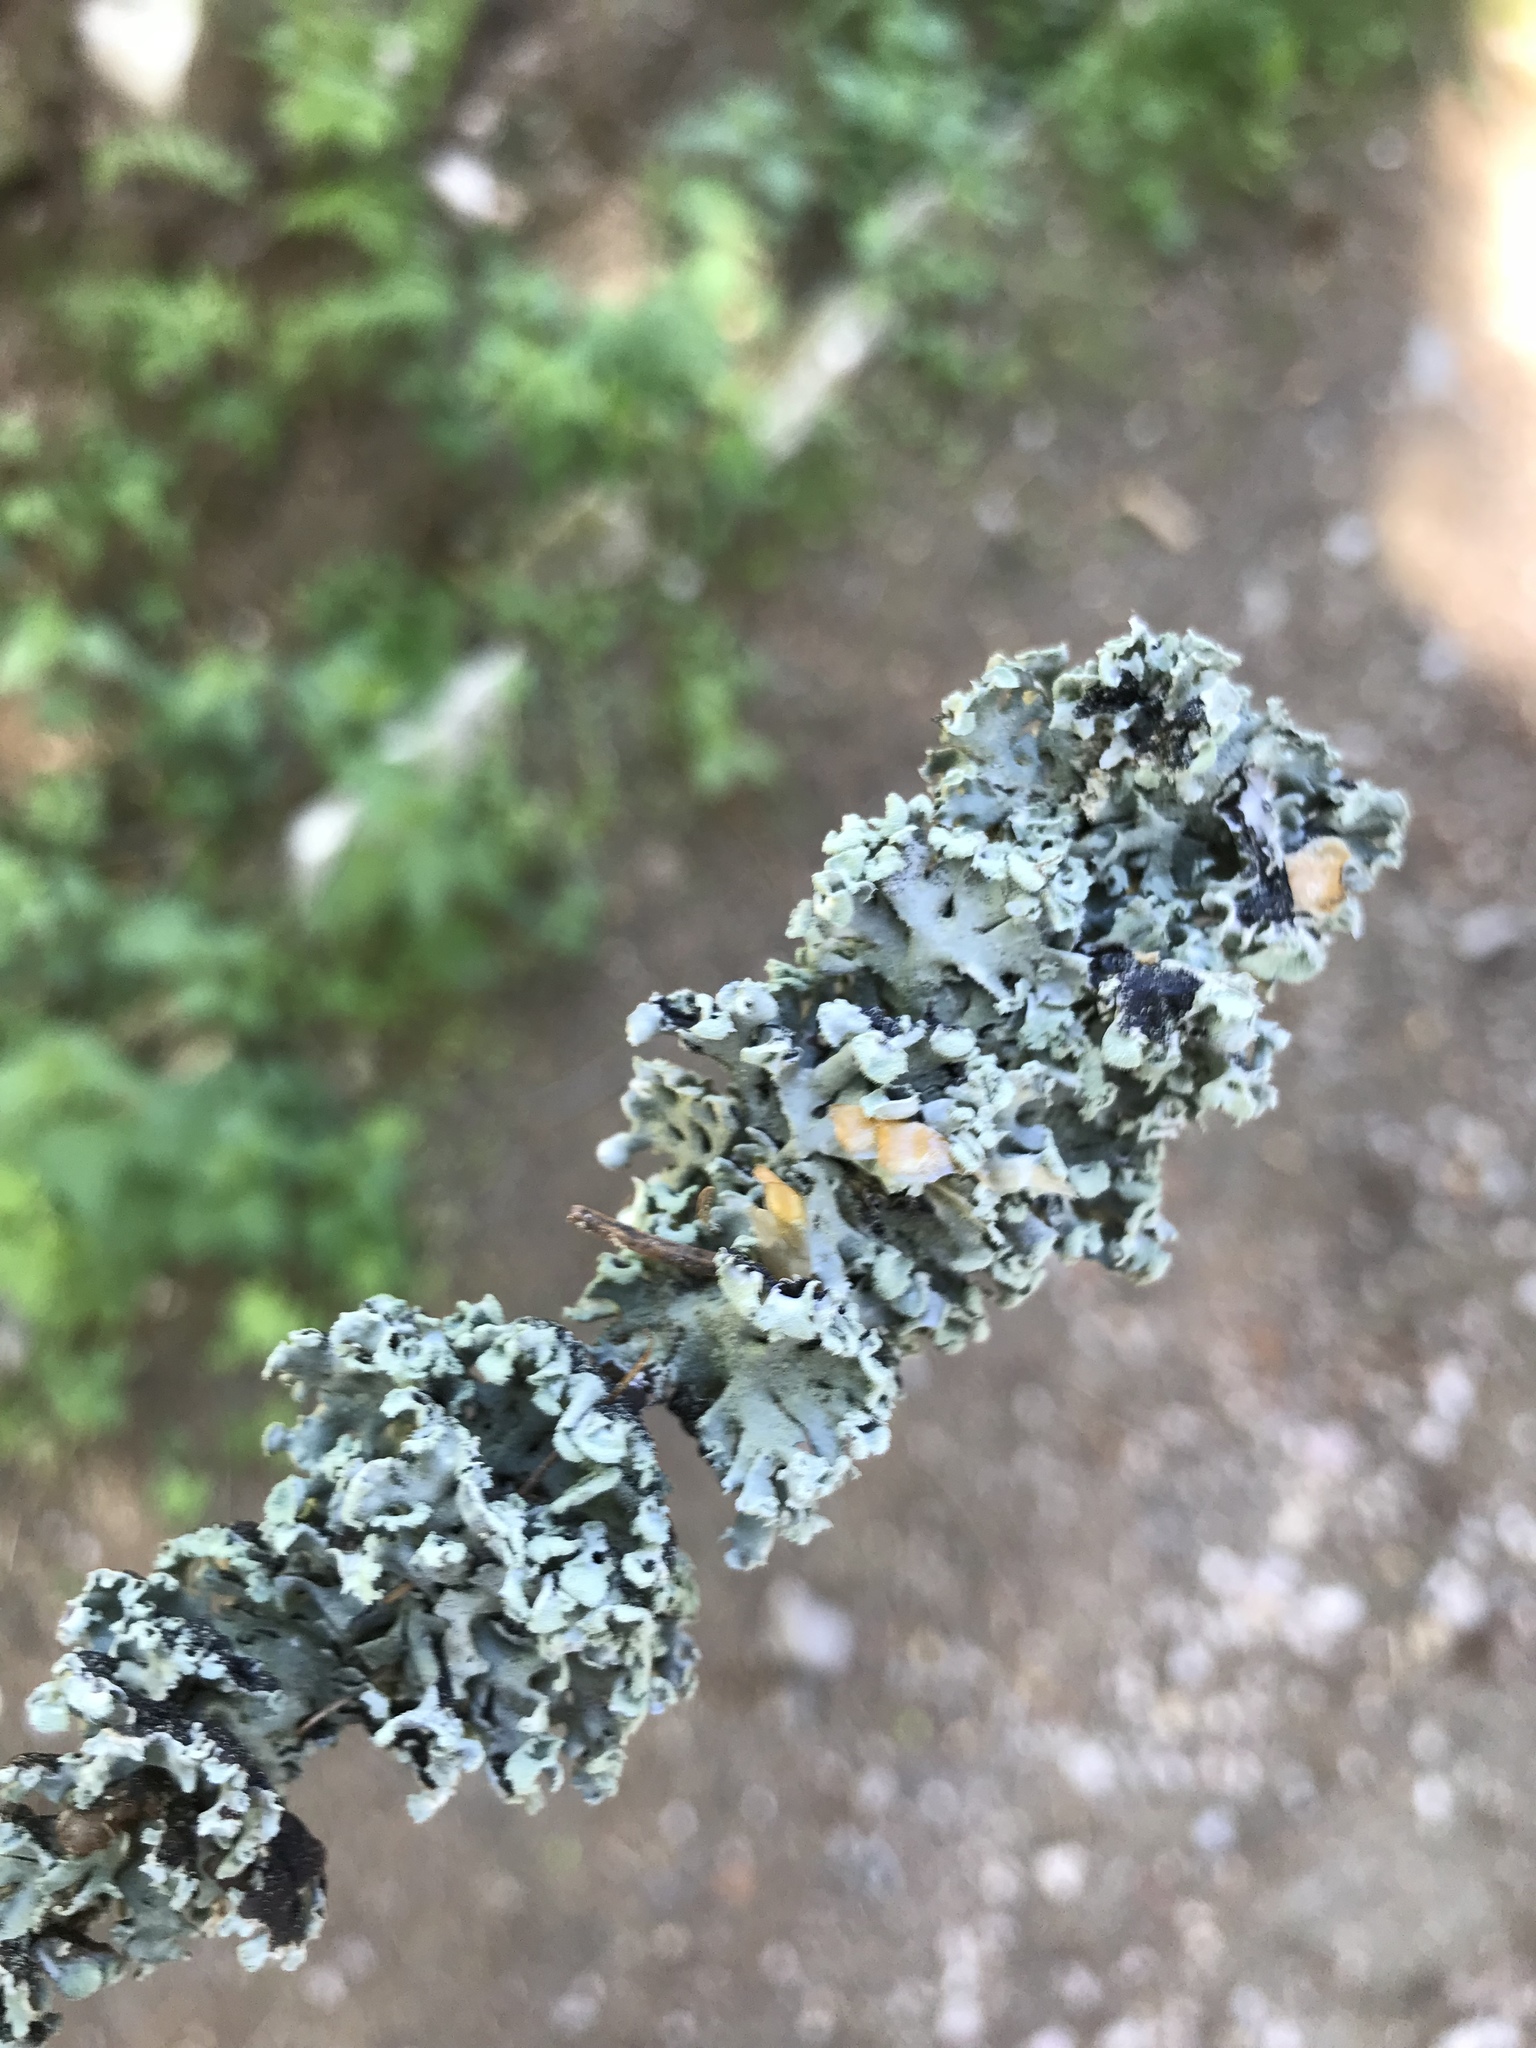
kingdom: Fungi
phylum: Ascomycota
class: Lecanoromycetes
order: Lecanorales
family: Parmeliaceae
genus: Hypogymnia
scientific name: Hypogymnia physodes
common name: Dark crottle
